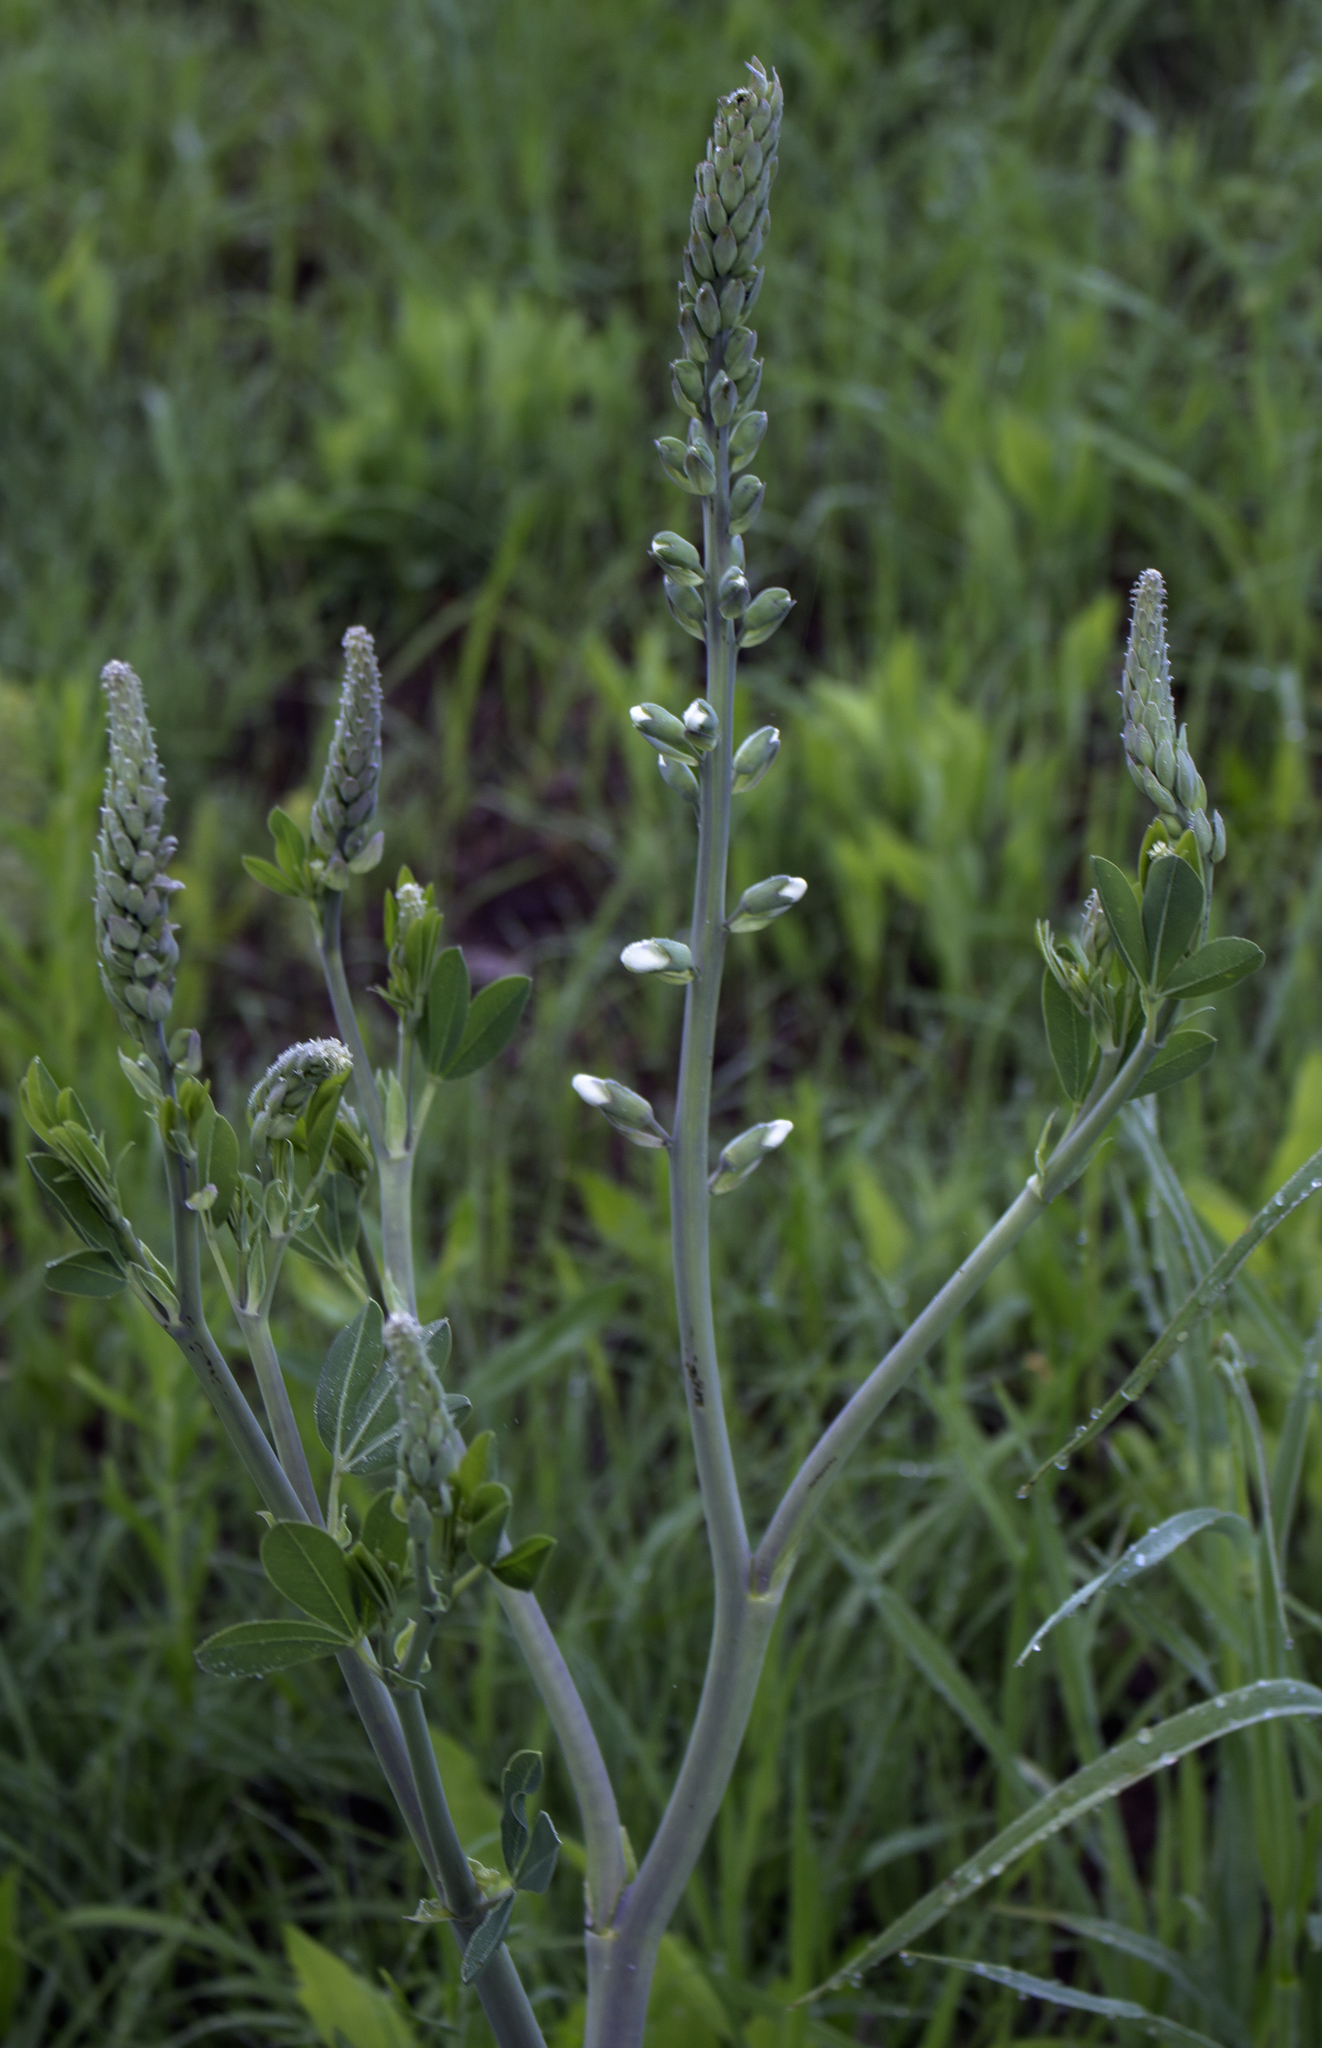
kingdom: Plantae
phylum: Tracheophyta
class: Magnoliopsida
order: Fabales
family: Fabaceae
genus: Baptisia
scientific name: Baptisia alba
